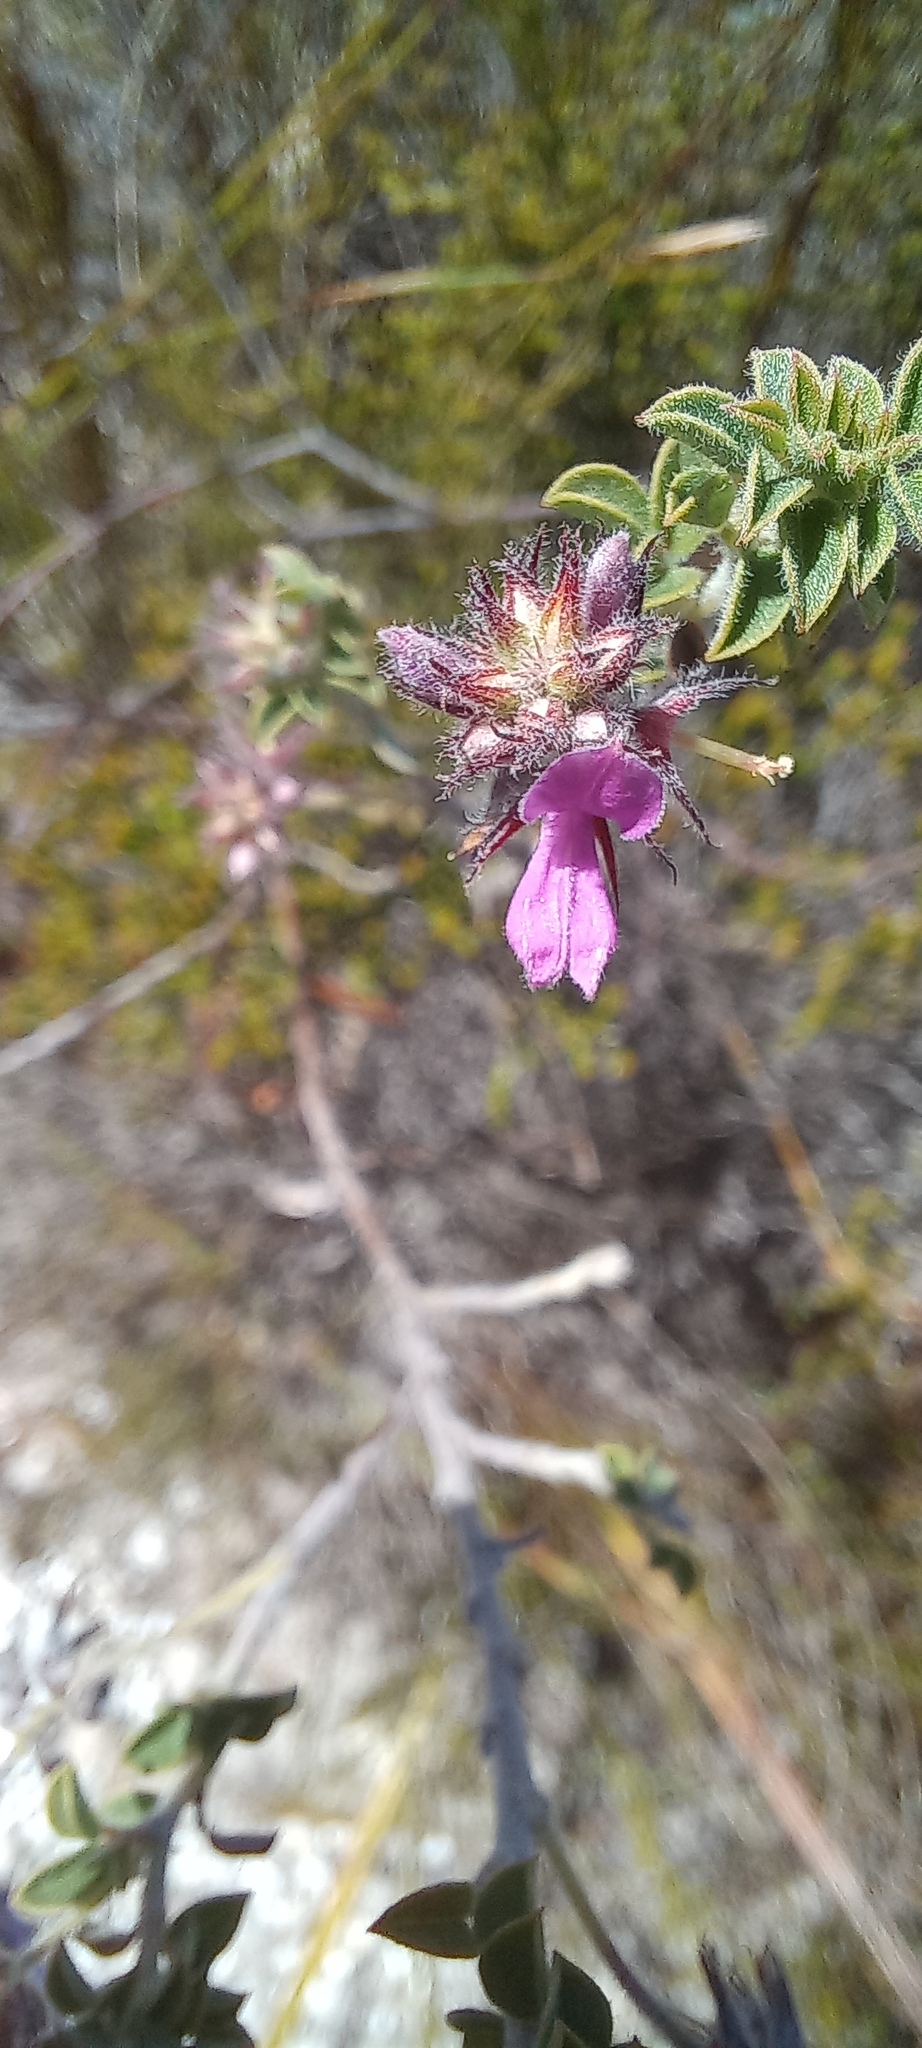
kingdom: Plantae
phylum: Tracheophyta
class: Magnoliopsida
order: Fabales
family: Fabaceae
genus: Indigofera
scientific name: Indigofera alopecuroides
